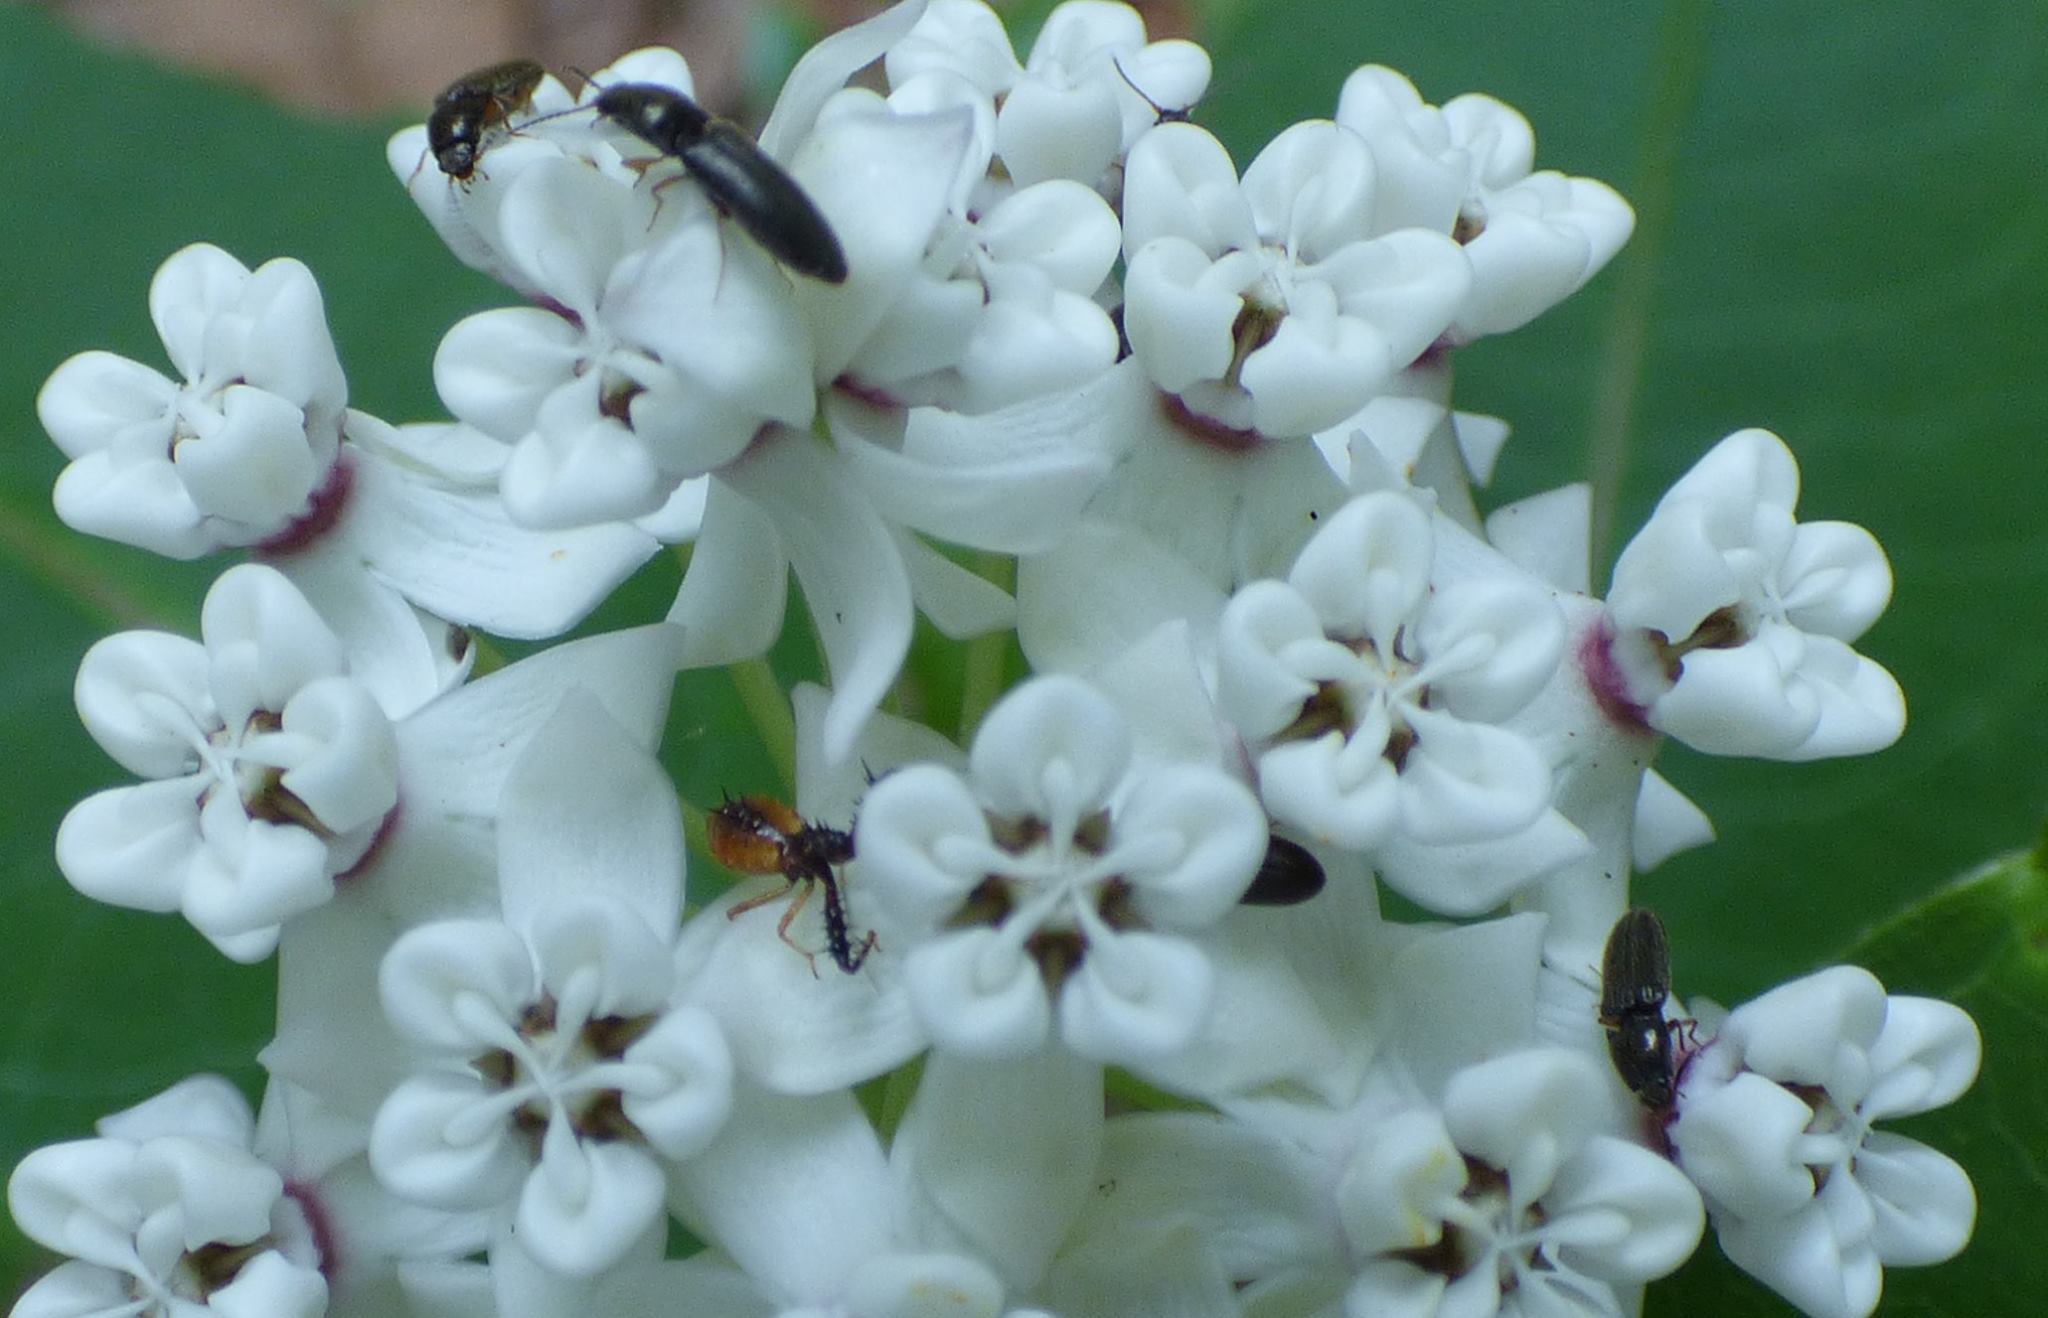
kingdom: Plantae
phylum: Tracheophyta
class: Magnoliopsida
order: Gentianales
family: Apocynaceae
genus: Asclepias
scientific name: Asclepias variegata
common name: Variegated milkweed
